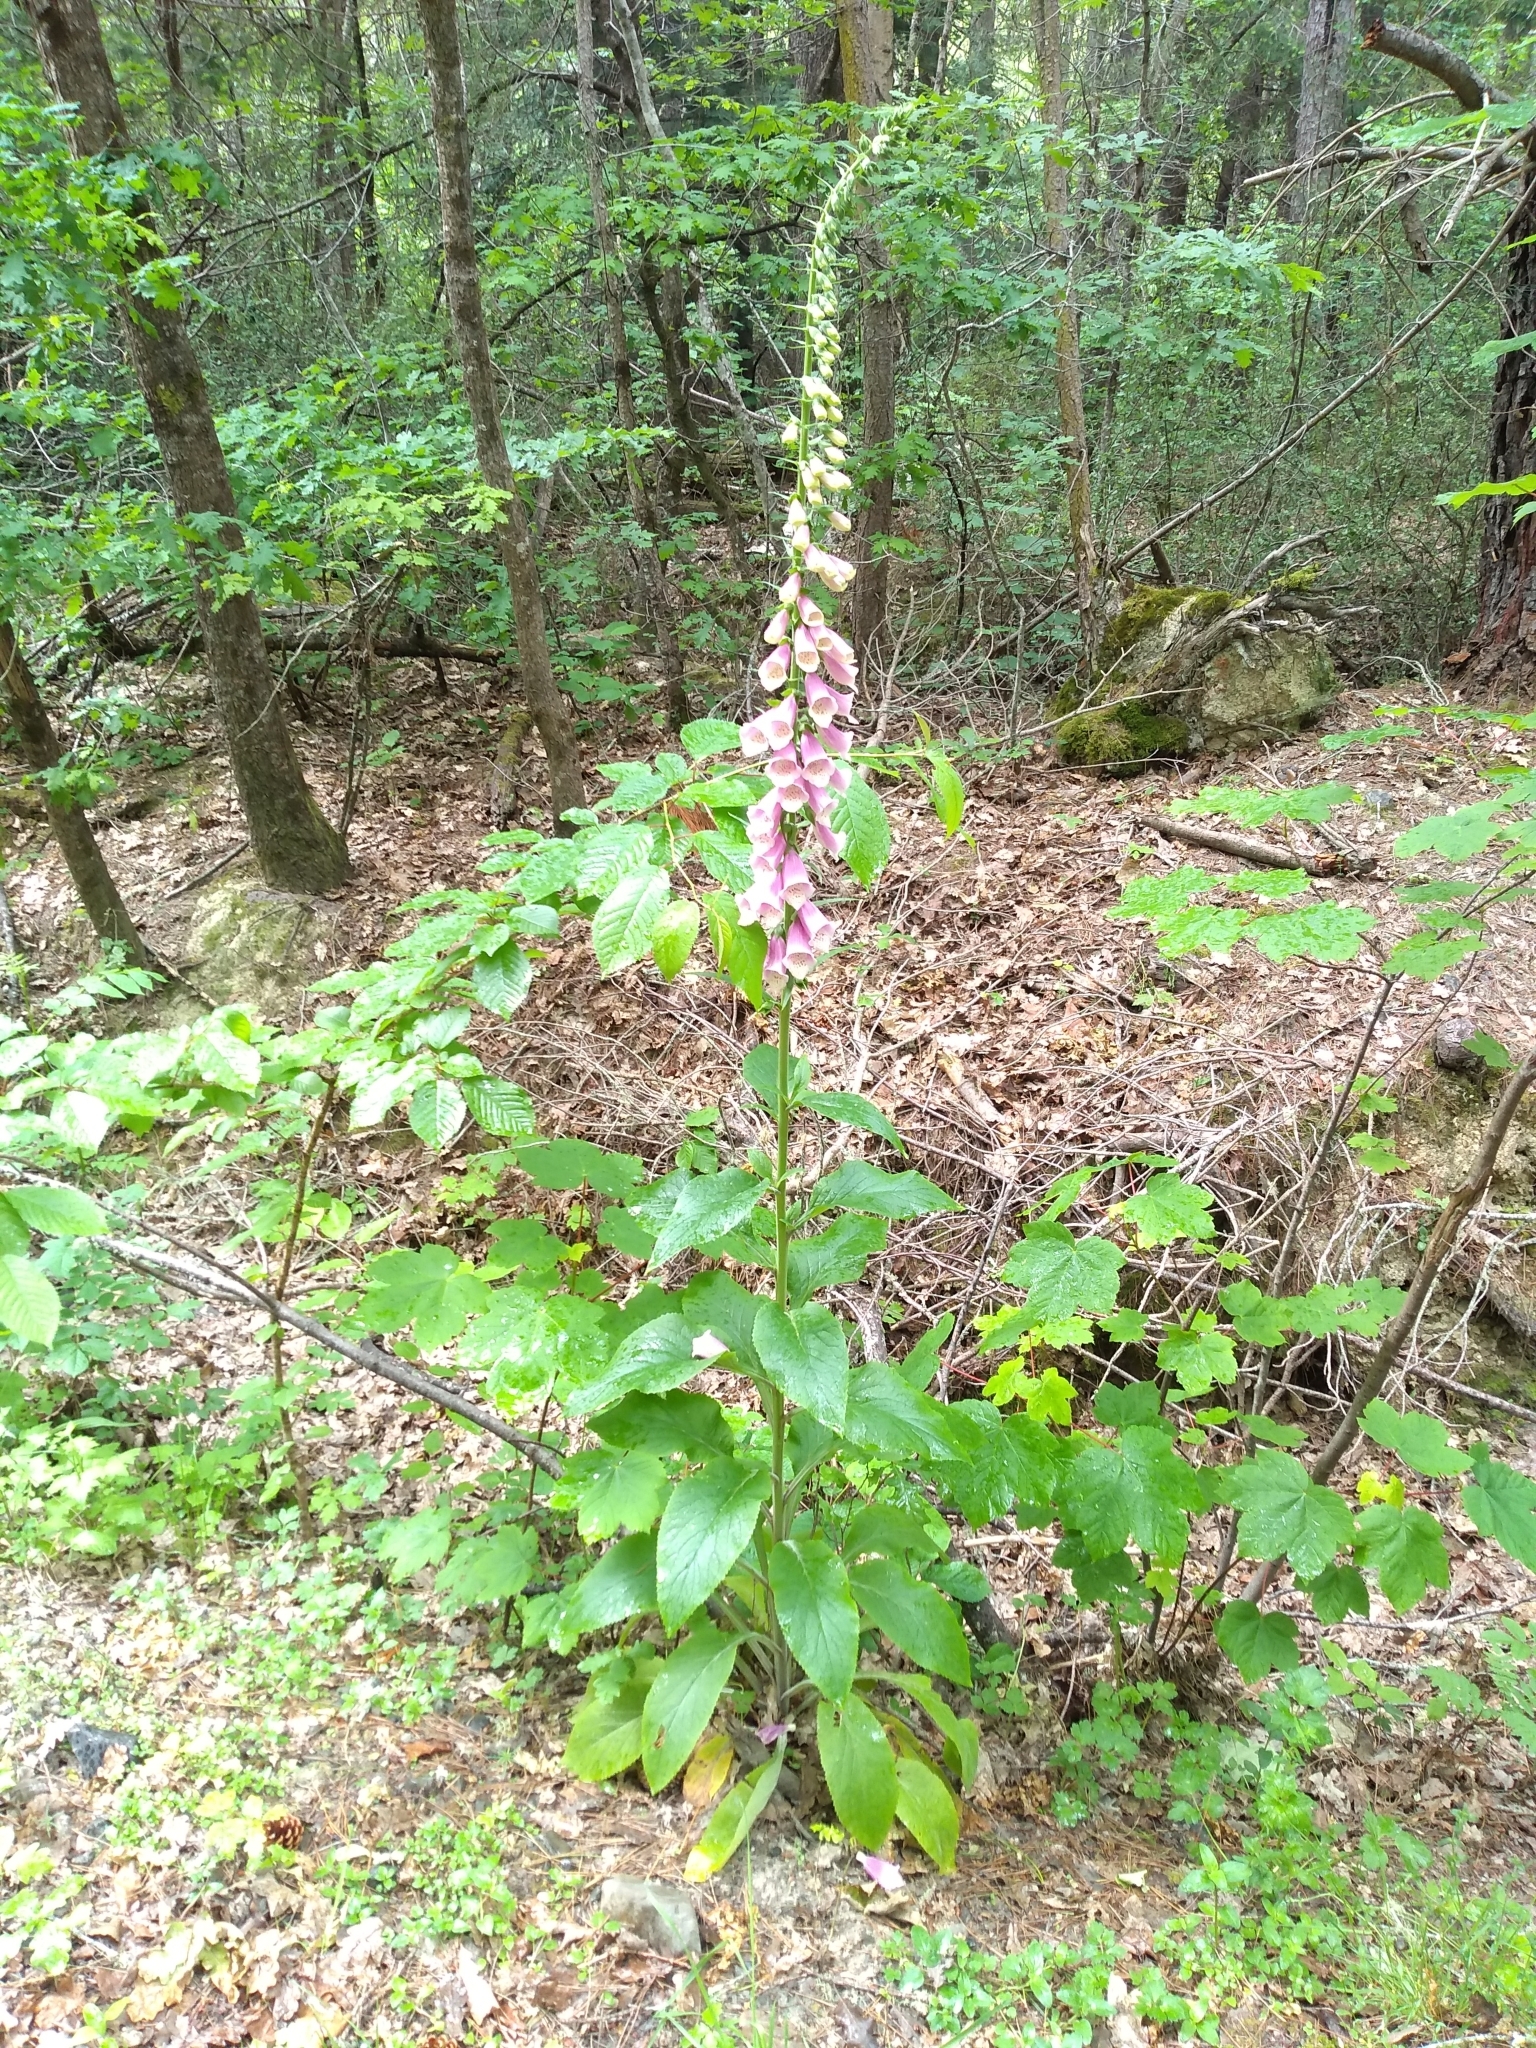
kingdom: Plantae
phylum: Tracheophyta
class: Magnoliopsida
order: Lamiales
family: Plantaginaceae
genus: Digitalis
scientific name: Digitalis purpurea
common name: Foxglove
